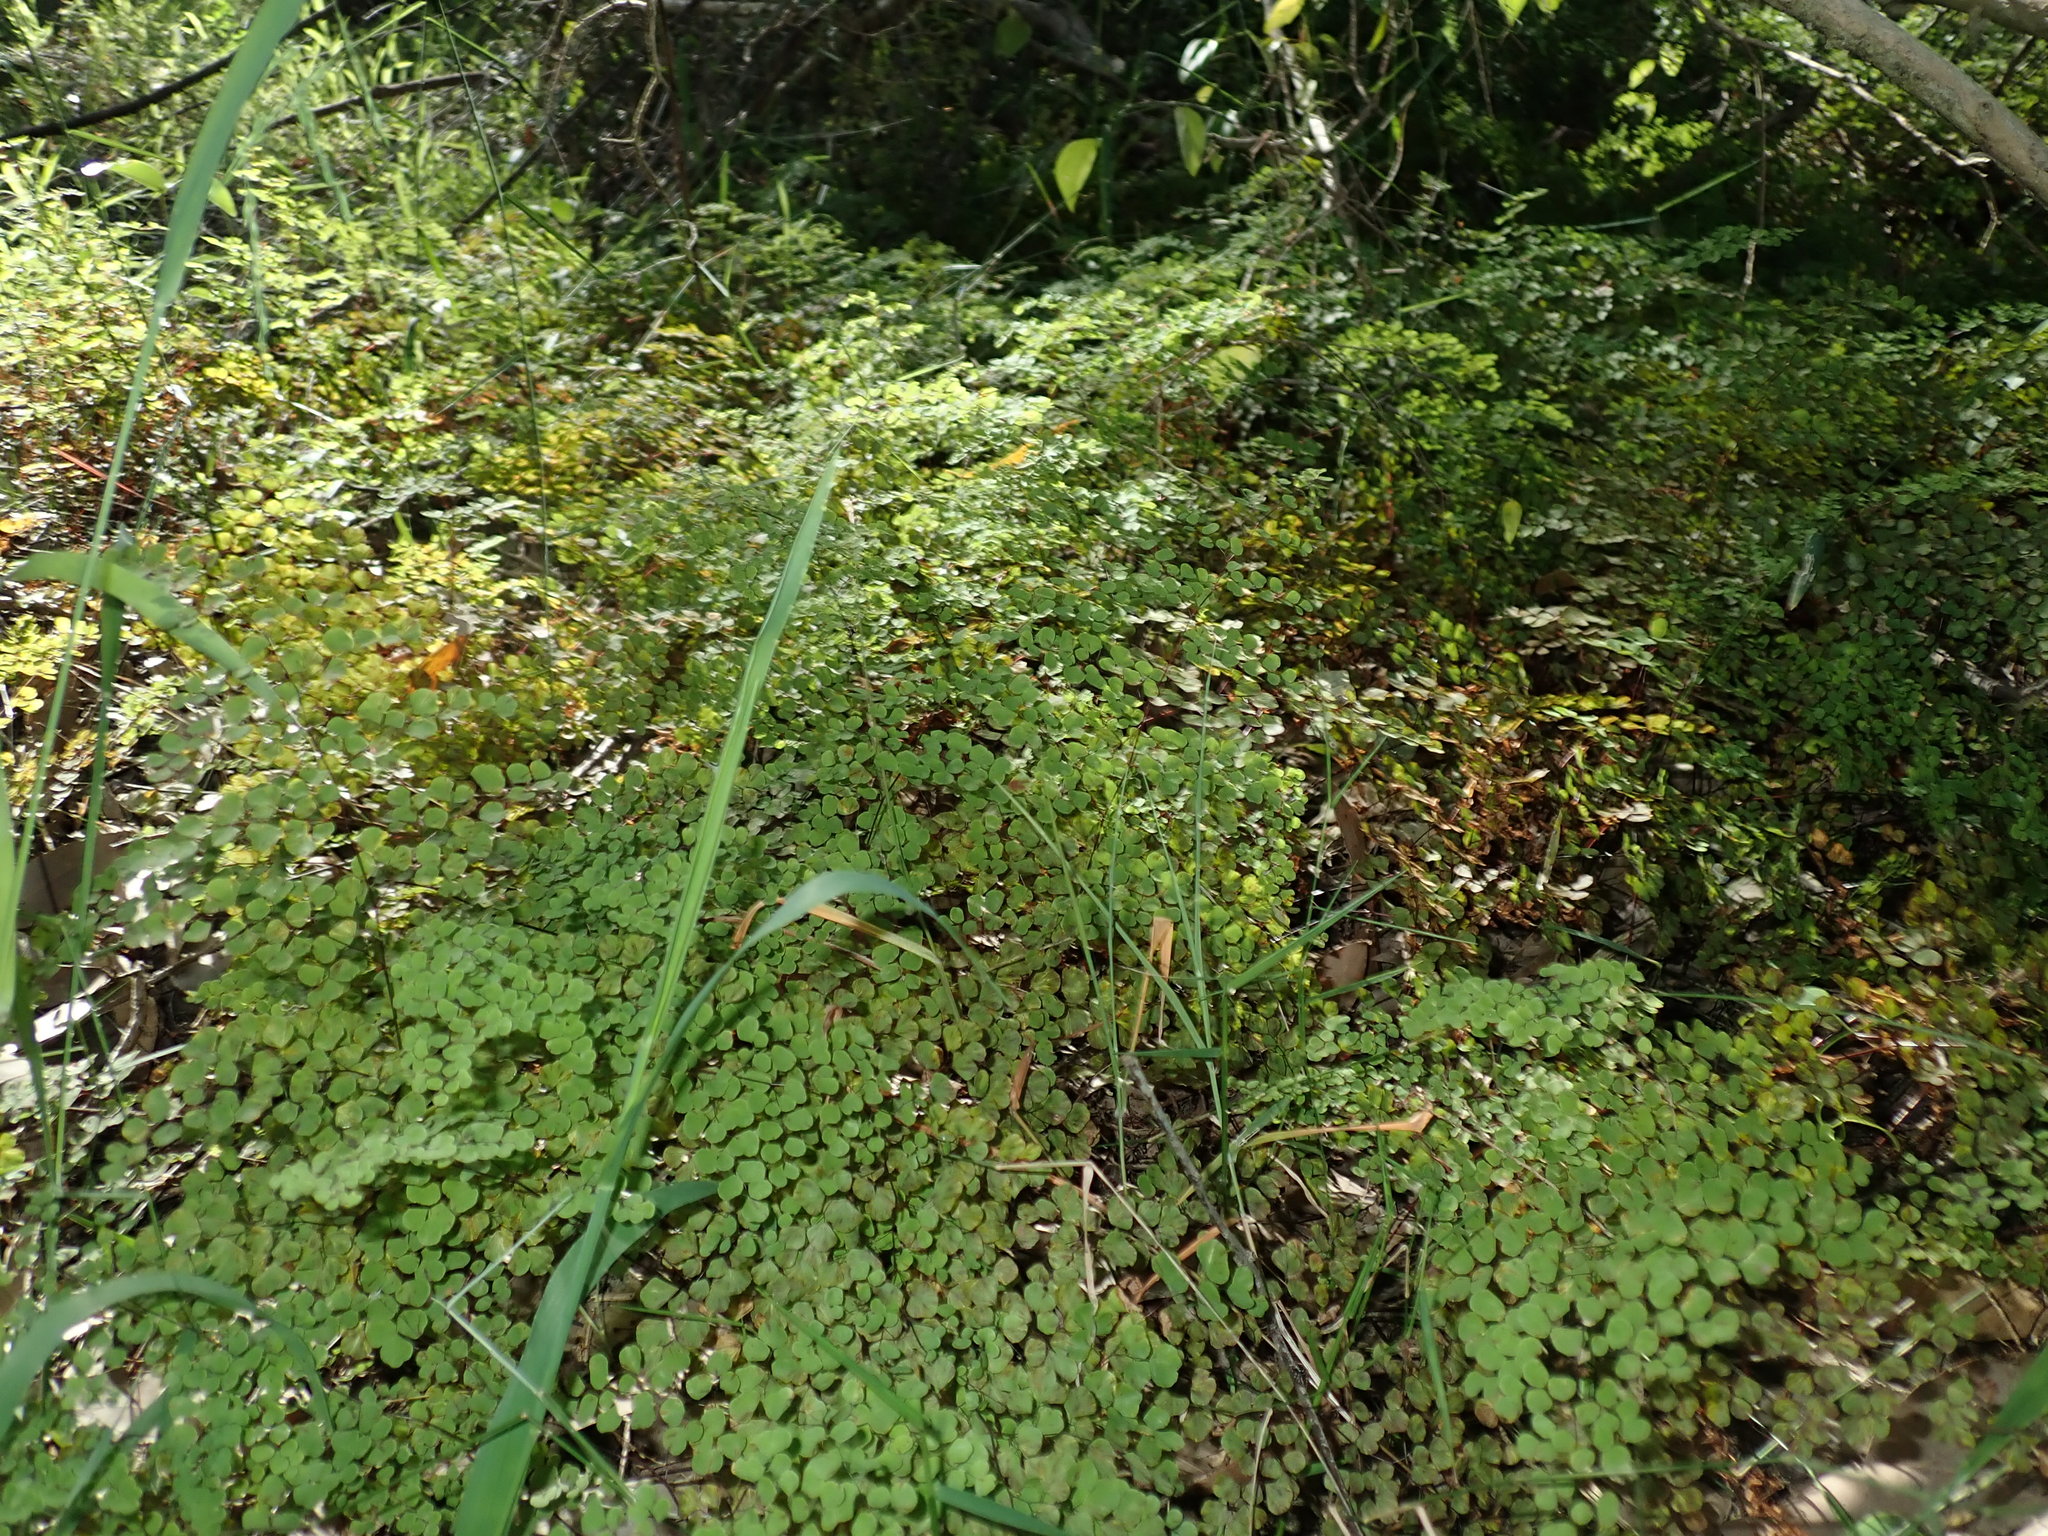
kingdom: Plantae
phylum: Tracheophyta
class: Polypodiopsida
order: Polypodiales
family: Pteridaceae
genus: Adiantum
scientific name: Adiantum aethiopicum
